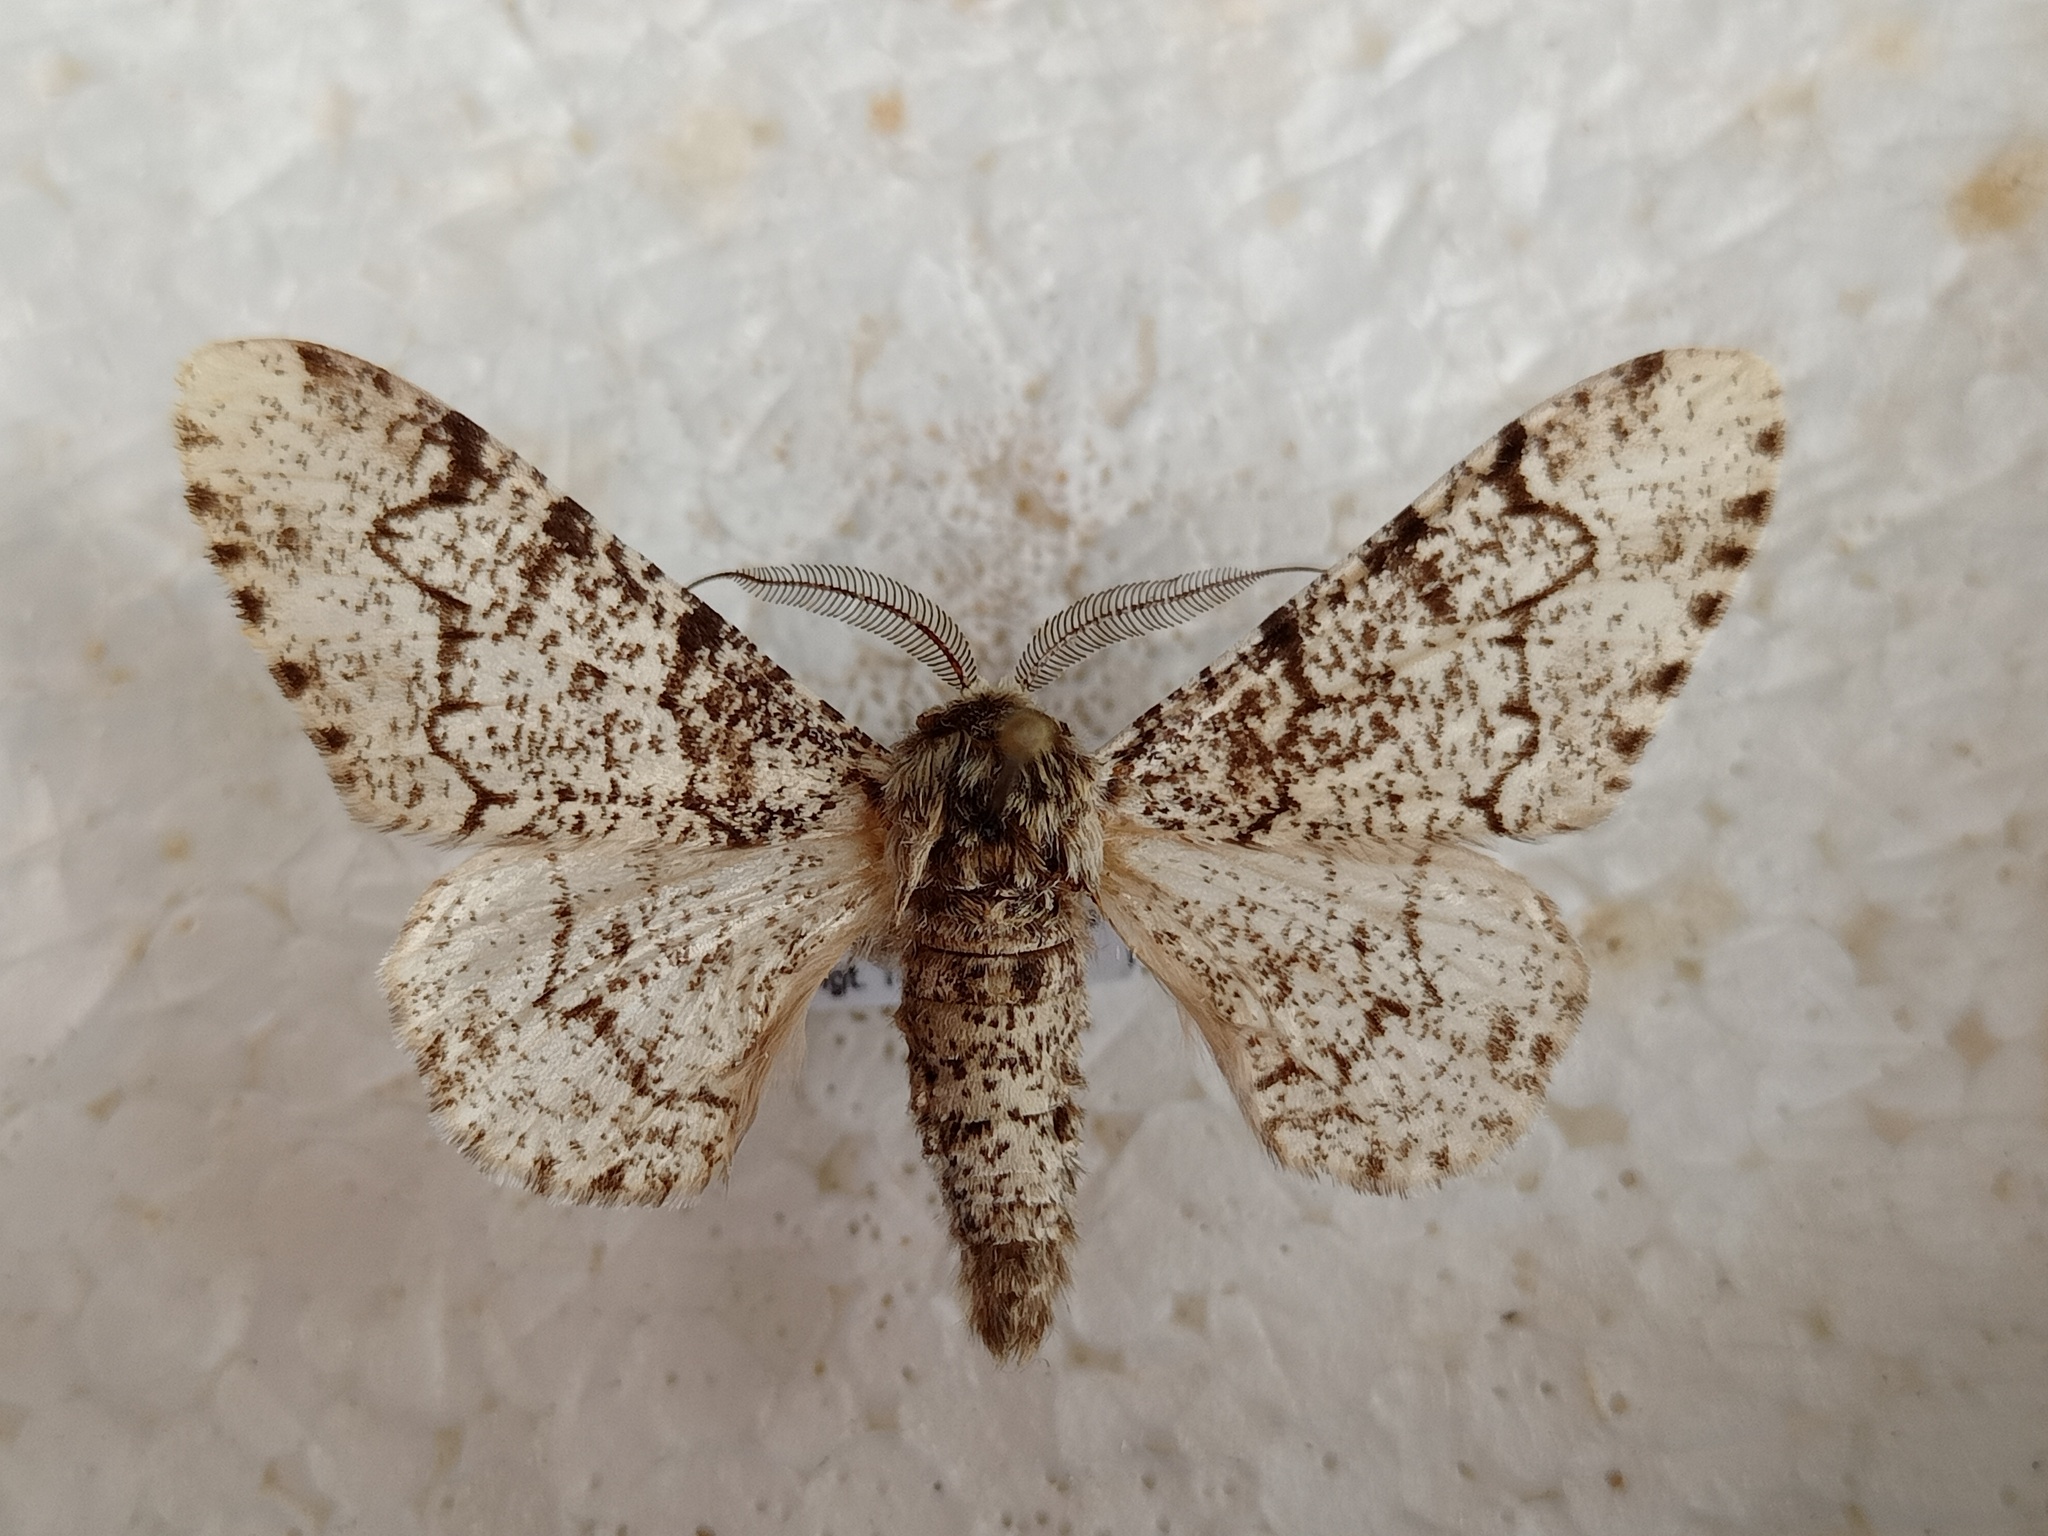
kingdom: Animalia
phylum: Arthropoda
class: Insecta
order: Lepidoptera
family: Geometridae
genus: Biston
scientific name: Biston betularia
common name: Peppered moth
